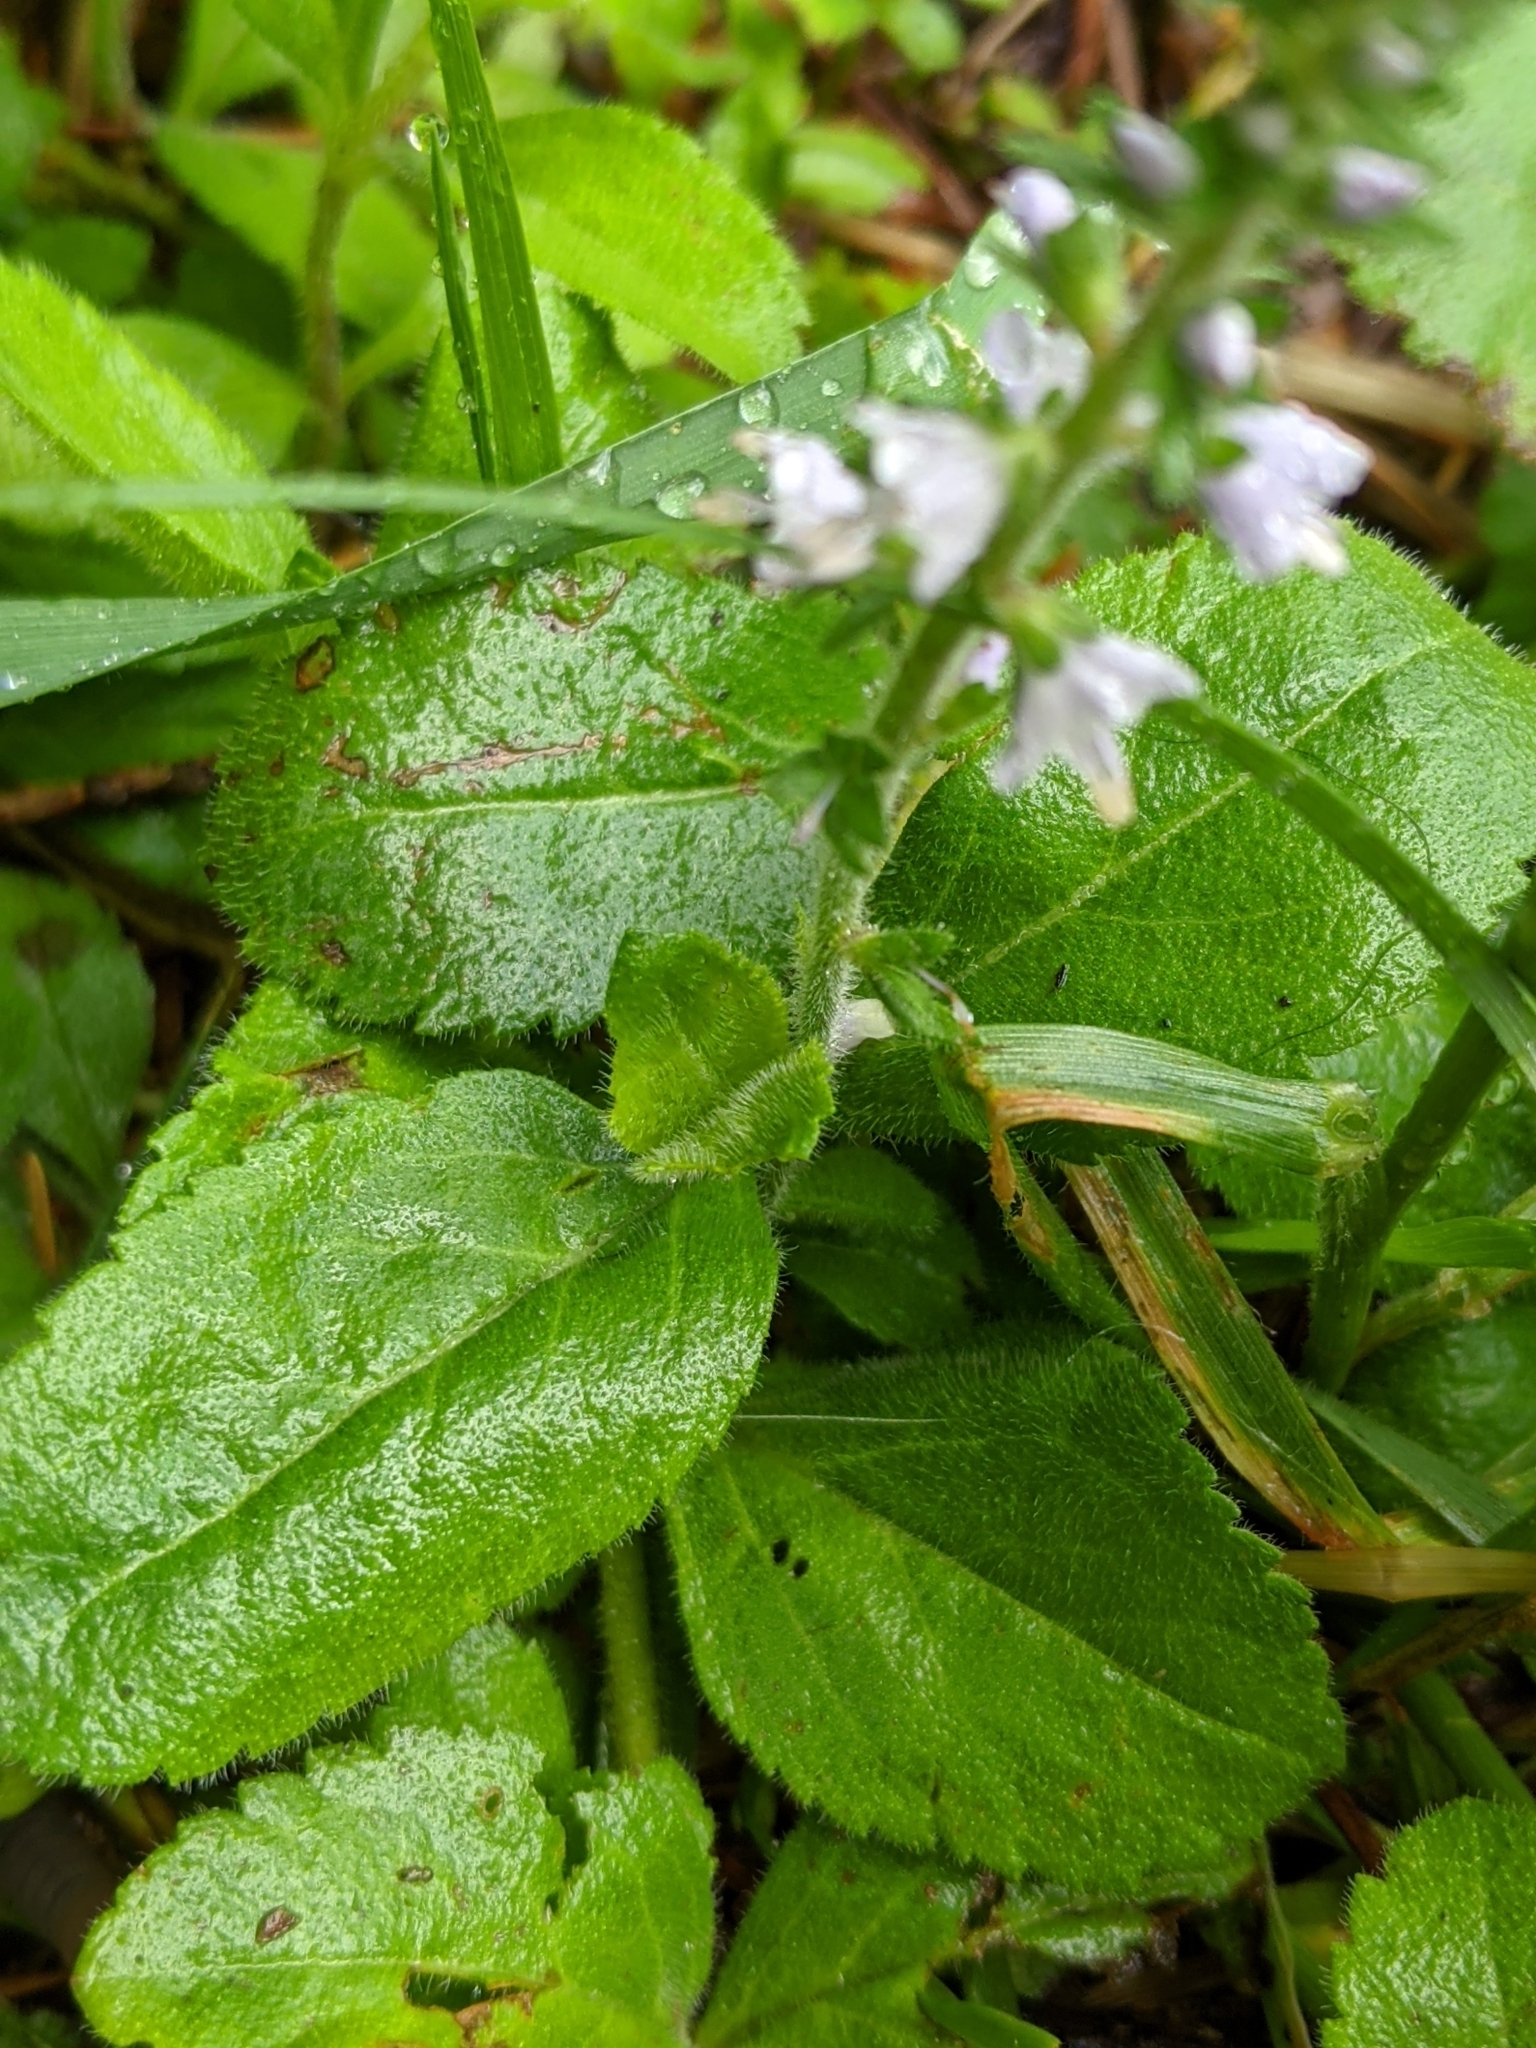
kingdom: Plantae
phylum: Tracheophyta
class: Magnoliopsida
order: Lamiales
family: Plantaginaceae
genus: Veronica
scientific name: Veronica officinalis
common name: Common speedwell
